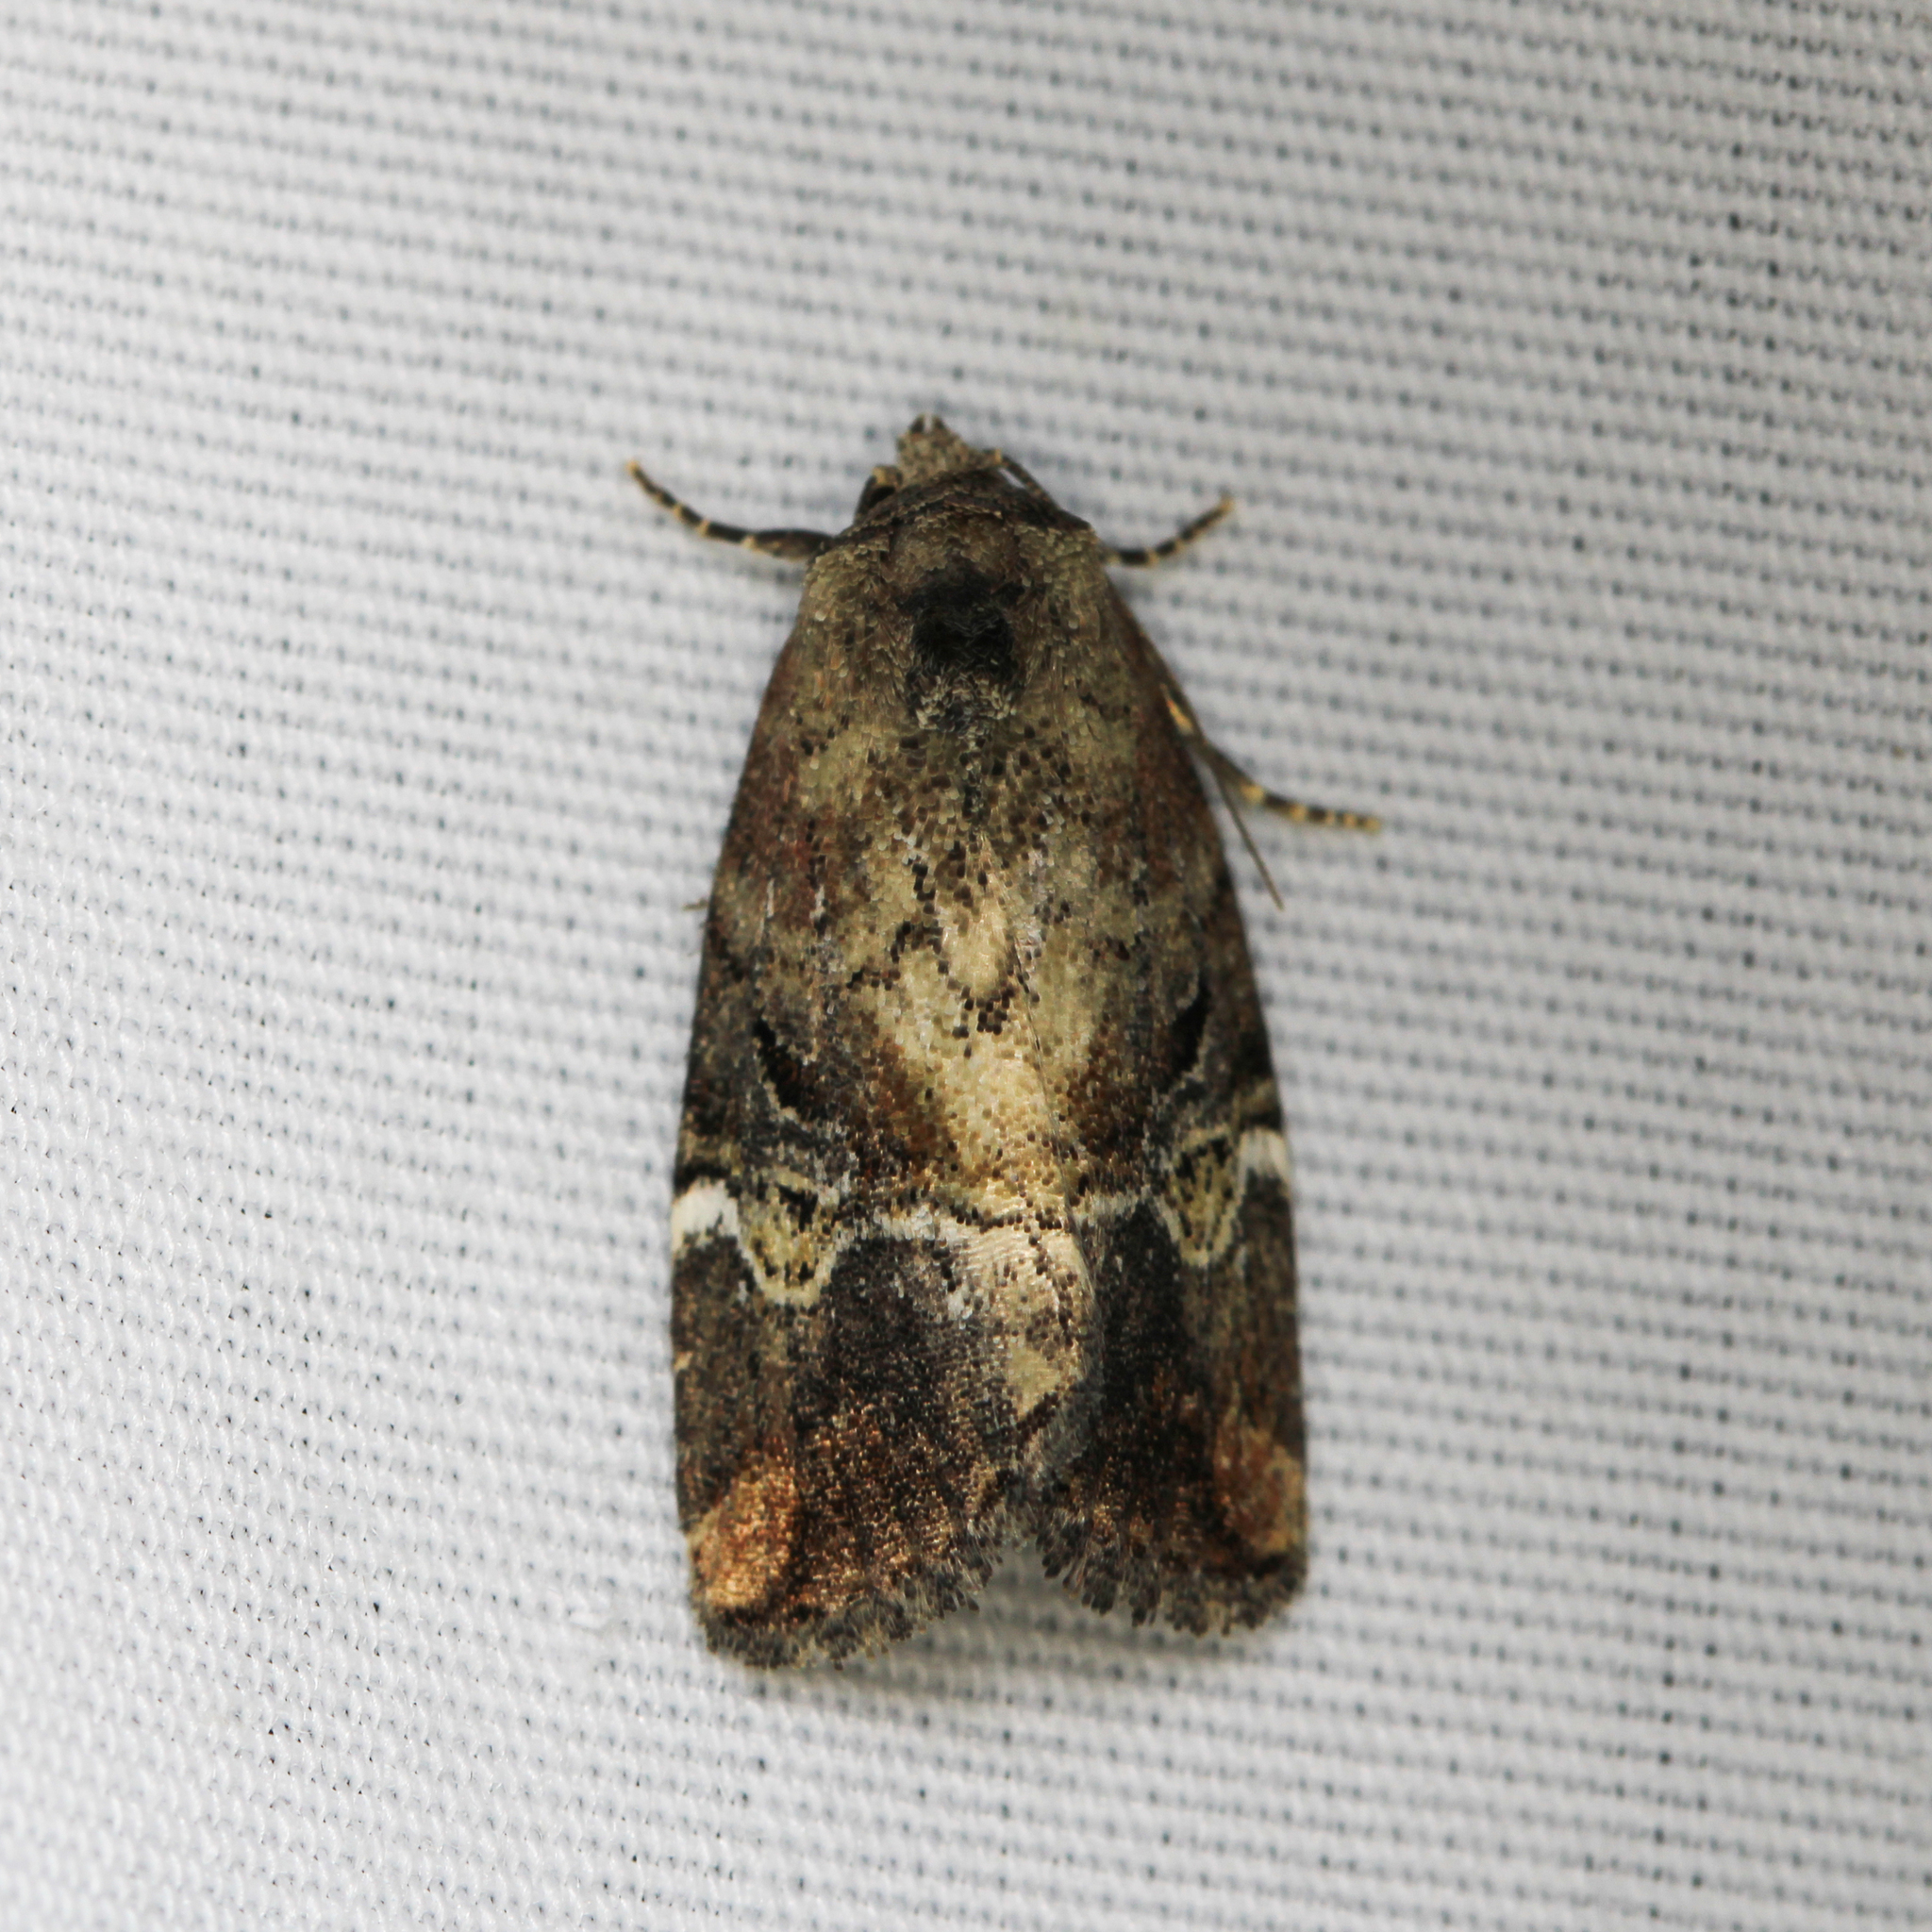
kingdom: Animalia
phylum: Arthropoda
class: Insecta
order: Lepidoptera
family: Noctuidae
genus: Elaphria
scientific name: Elaphria versicolor
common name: Fir harlequin
